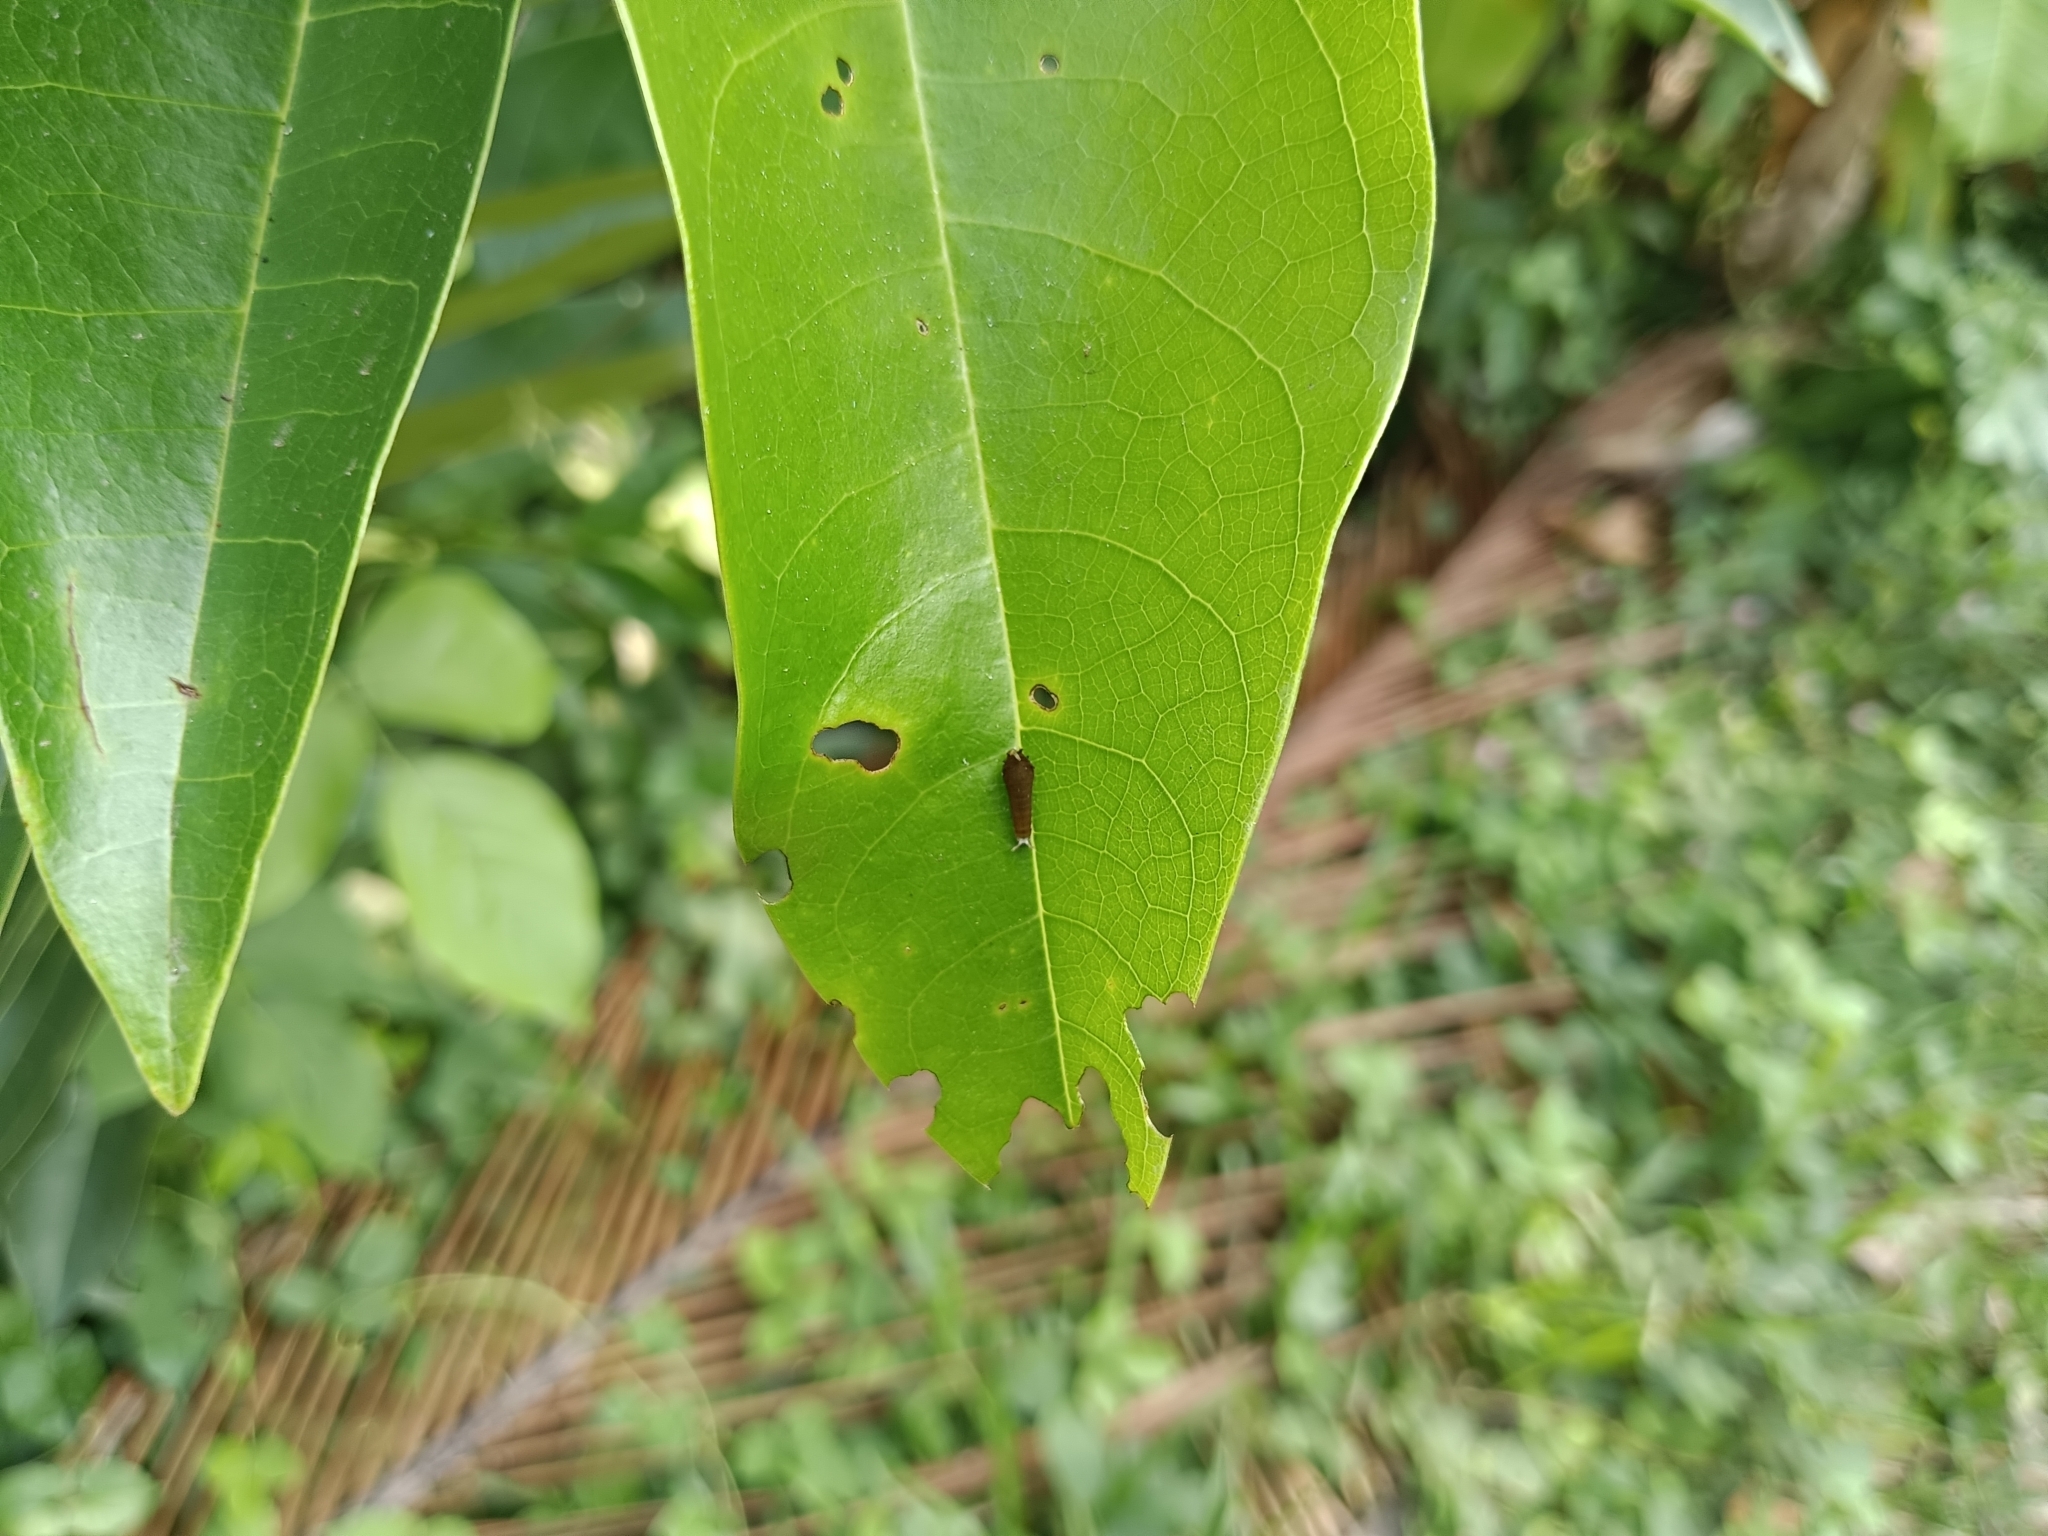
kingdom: Animalia
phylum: Arthropoda
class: Insecta
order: Lepidoptera
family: Papilionidae
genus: Graphium
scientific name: Graphium doson
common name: Common jay
